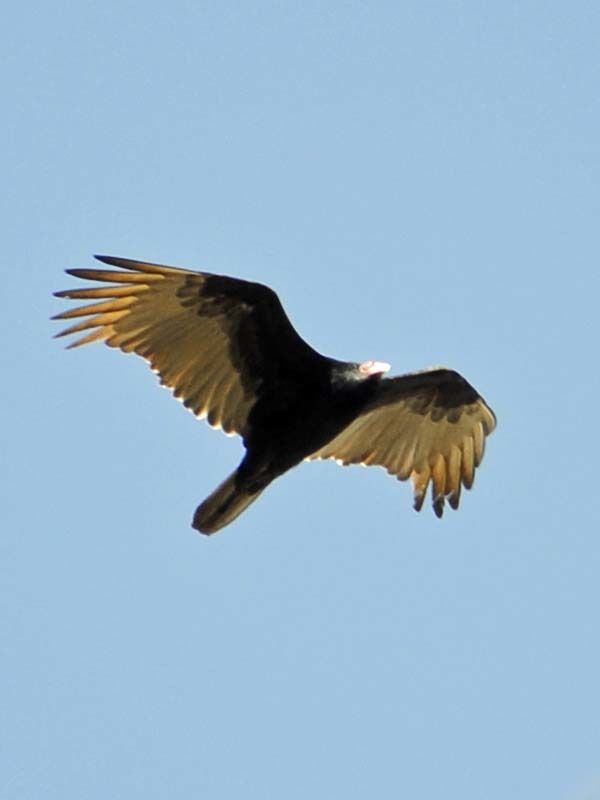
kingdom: Animalia
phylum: Chordata
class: Aves
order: Accipitriformes
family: Cathartidae
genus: Cathartes
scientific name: Cathartes aura
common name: Turkey vulture
